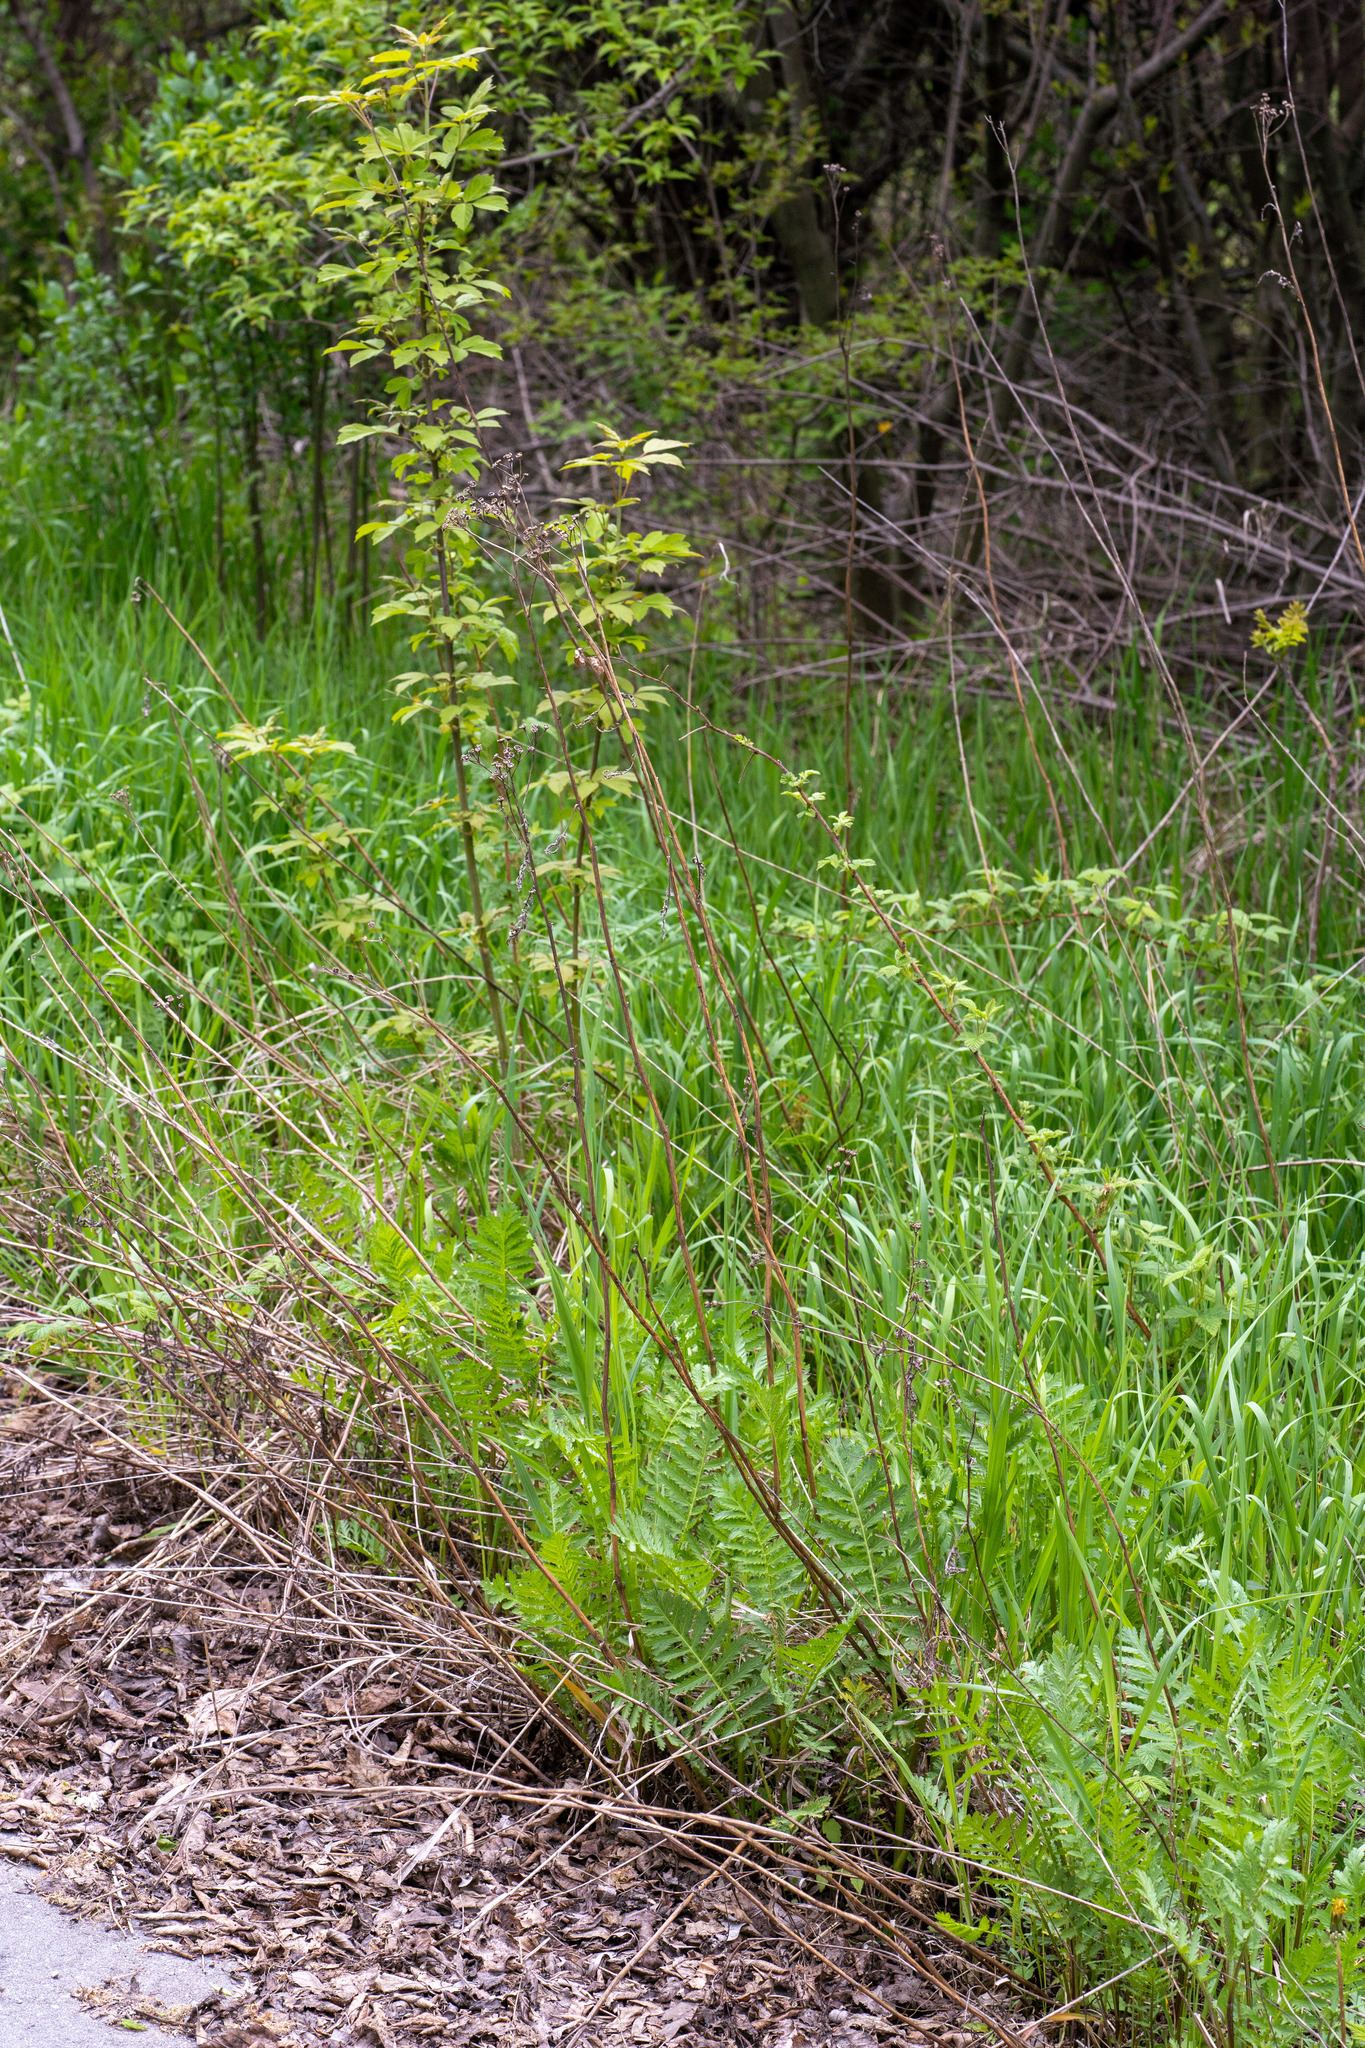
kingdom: Plantae
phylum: Tracheophyta
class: Magnoliopsida
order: Asterales
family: Asteraceae
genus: Tanacetum
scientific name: Tanacetum vulgare
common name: Common tansy
